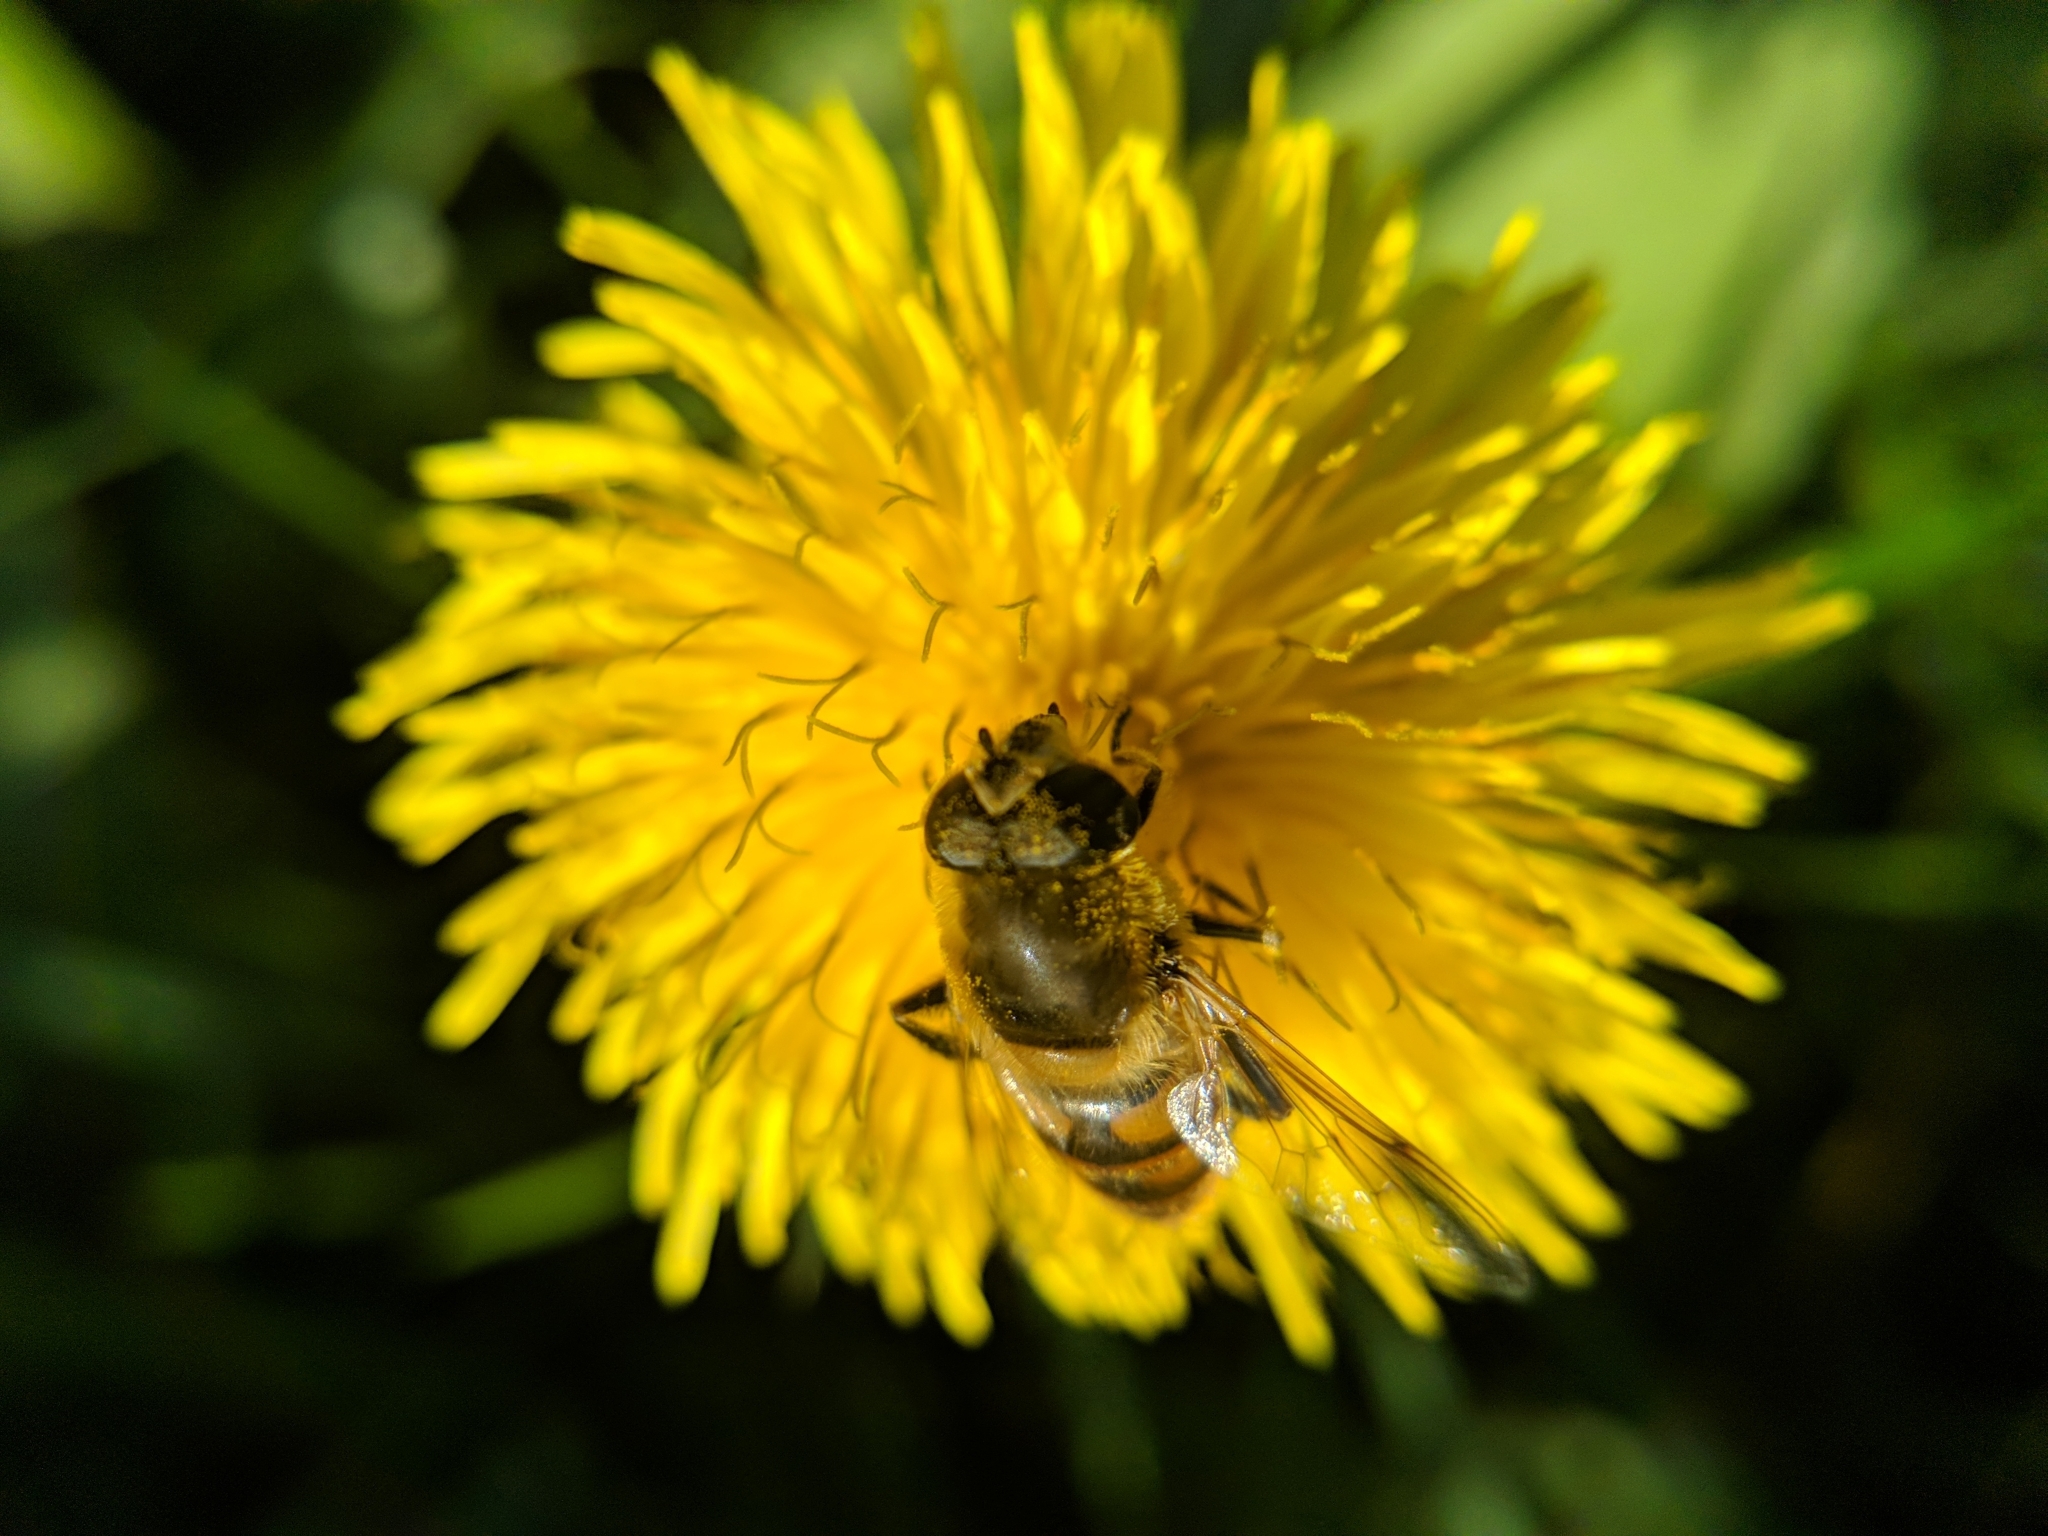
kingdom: Animalia
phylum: Arthropoda
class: Insecta
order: Diptera
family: Syrphidae
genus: Eristalis
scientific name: Eristalis tenax
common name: Drone fly
